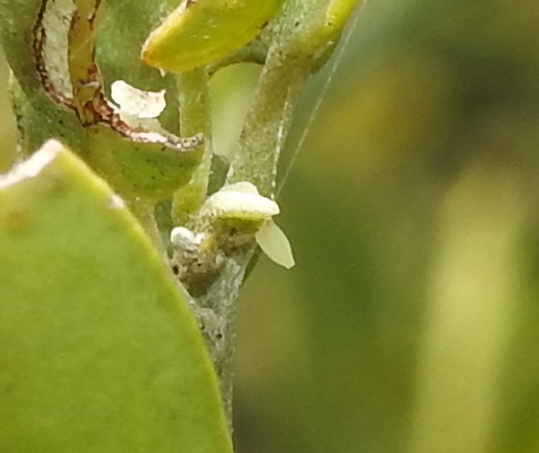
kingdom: Animalia
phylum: Arthropoda
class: Insecta
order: Lepidoptera
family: Pieridae
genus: Cepora
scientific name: Cepora nerissa
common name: Common gull
